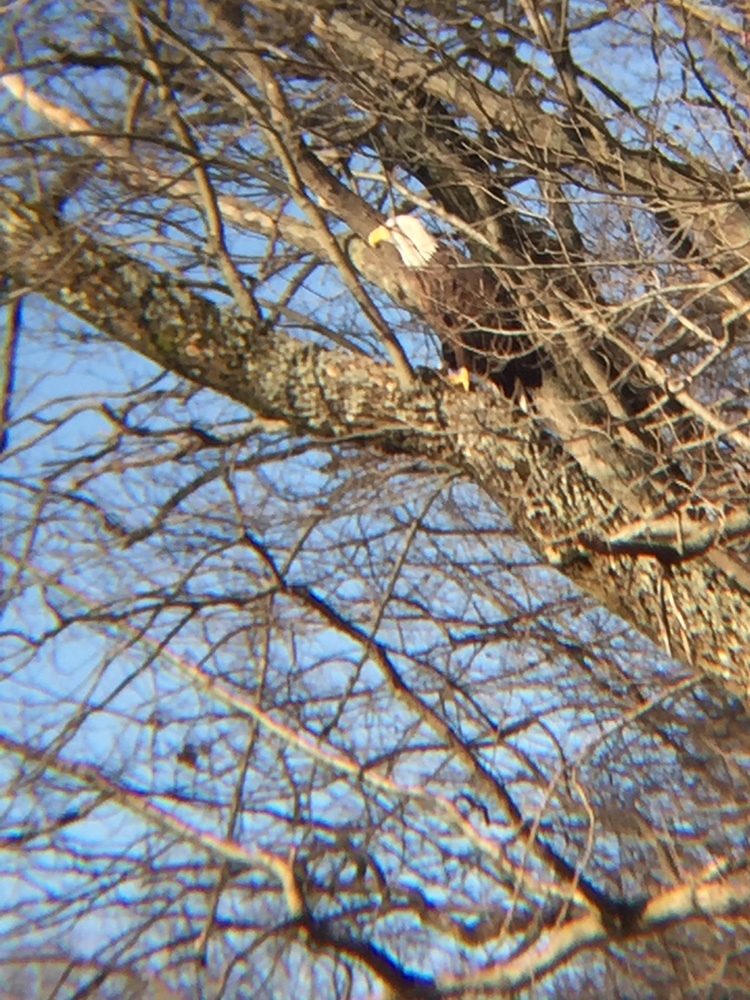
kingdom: Animalia
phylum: Chordata
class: Aves
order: Accipitriformes
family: Accipitridae
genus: Haliaeetus
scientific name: Haliaeetus leucocephalus
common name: Bald eagle
